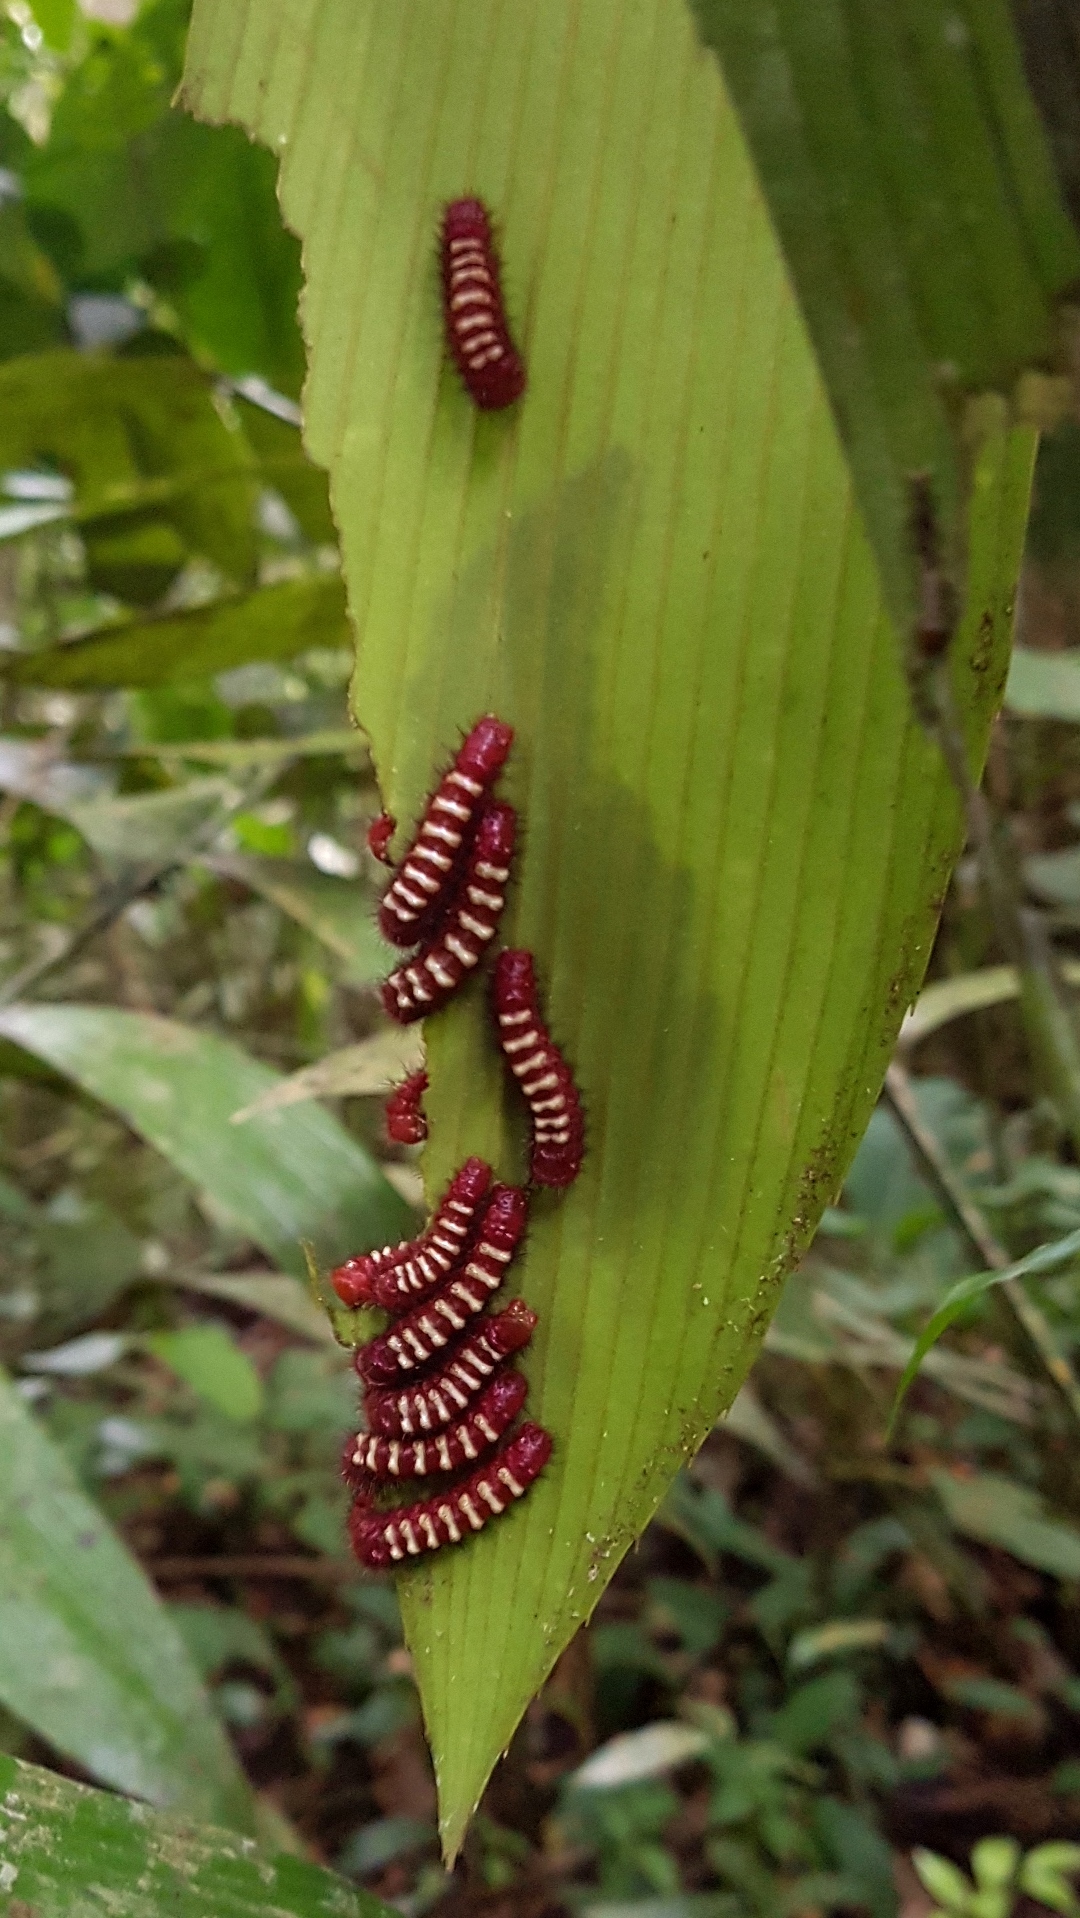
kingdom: Animalia
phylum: Arthropoda
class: Insecta
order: Lepidoptera
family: Lycaenidae
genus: Eumaeus
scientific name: Eumaeus godartii
